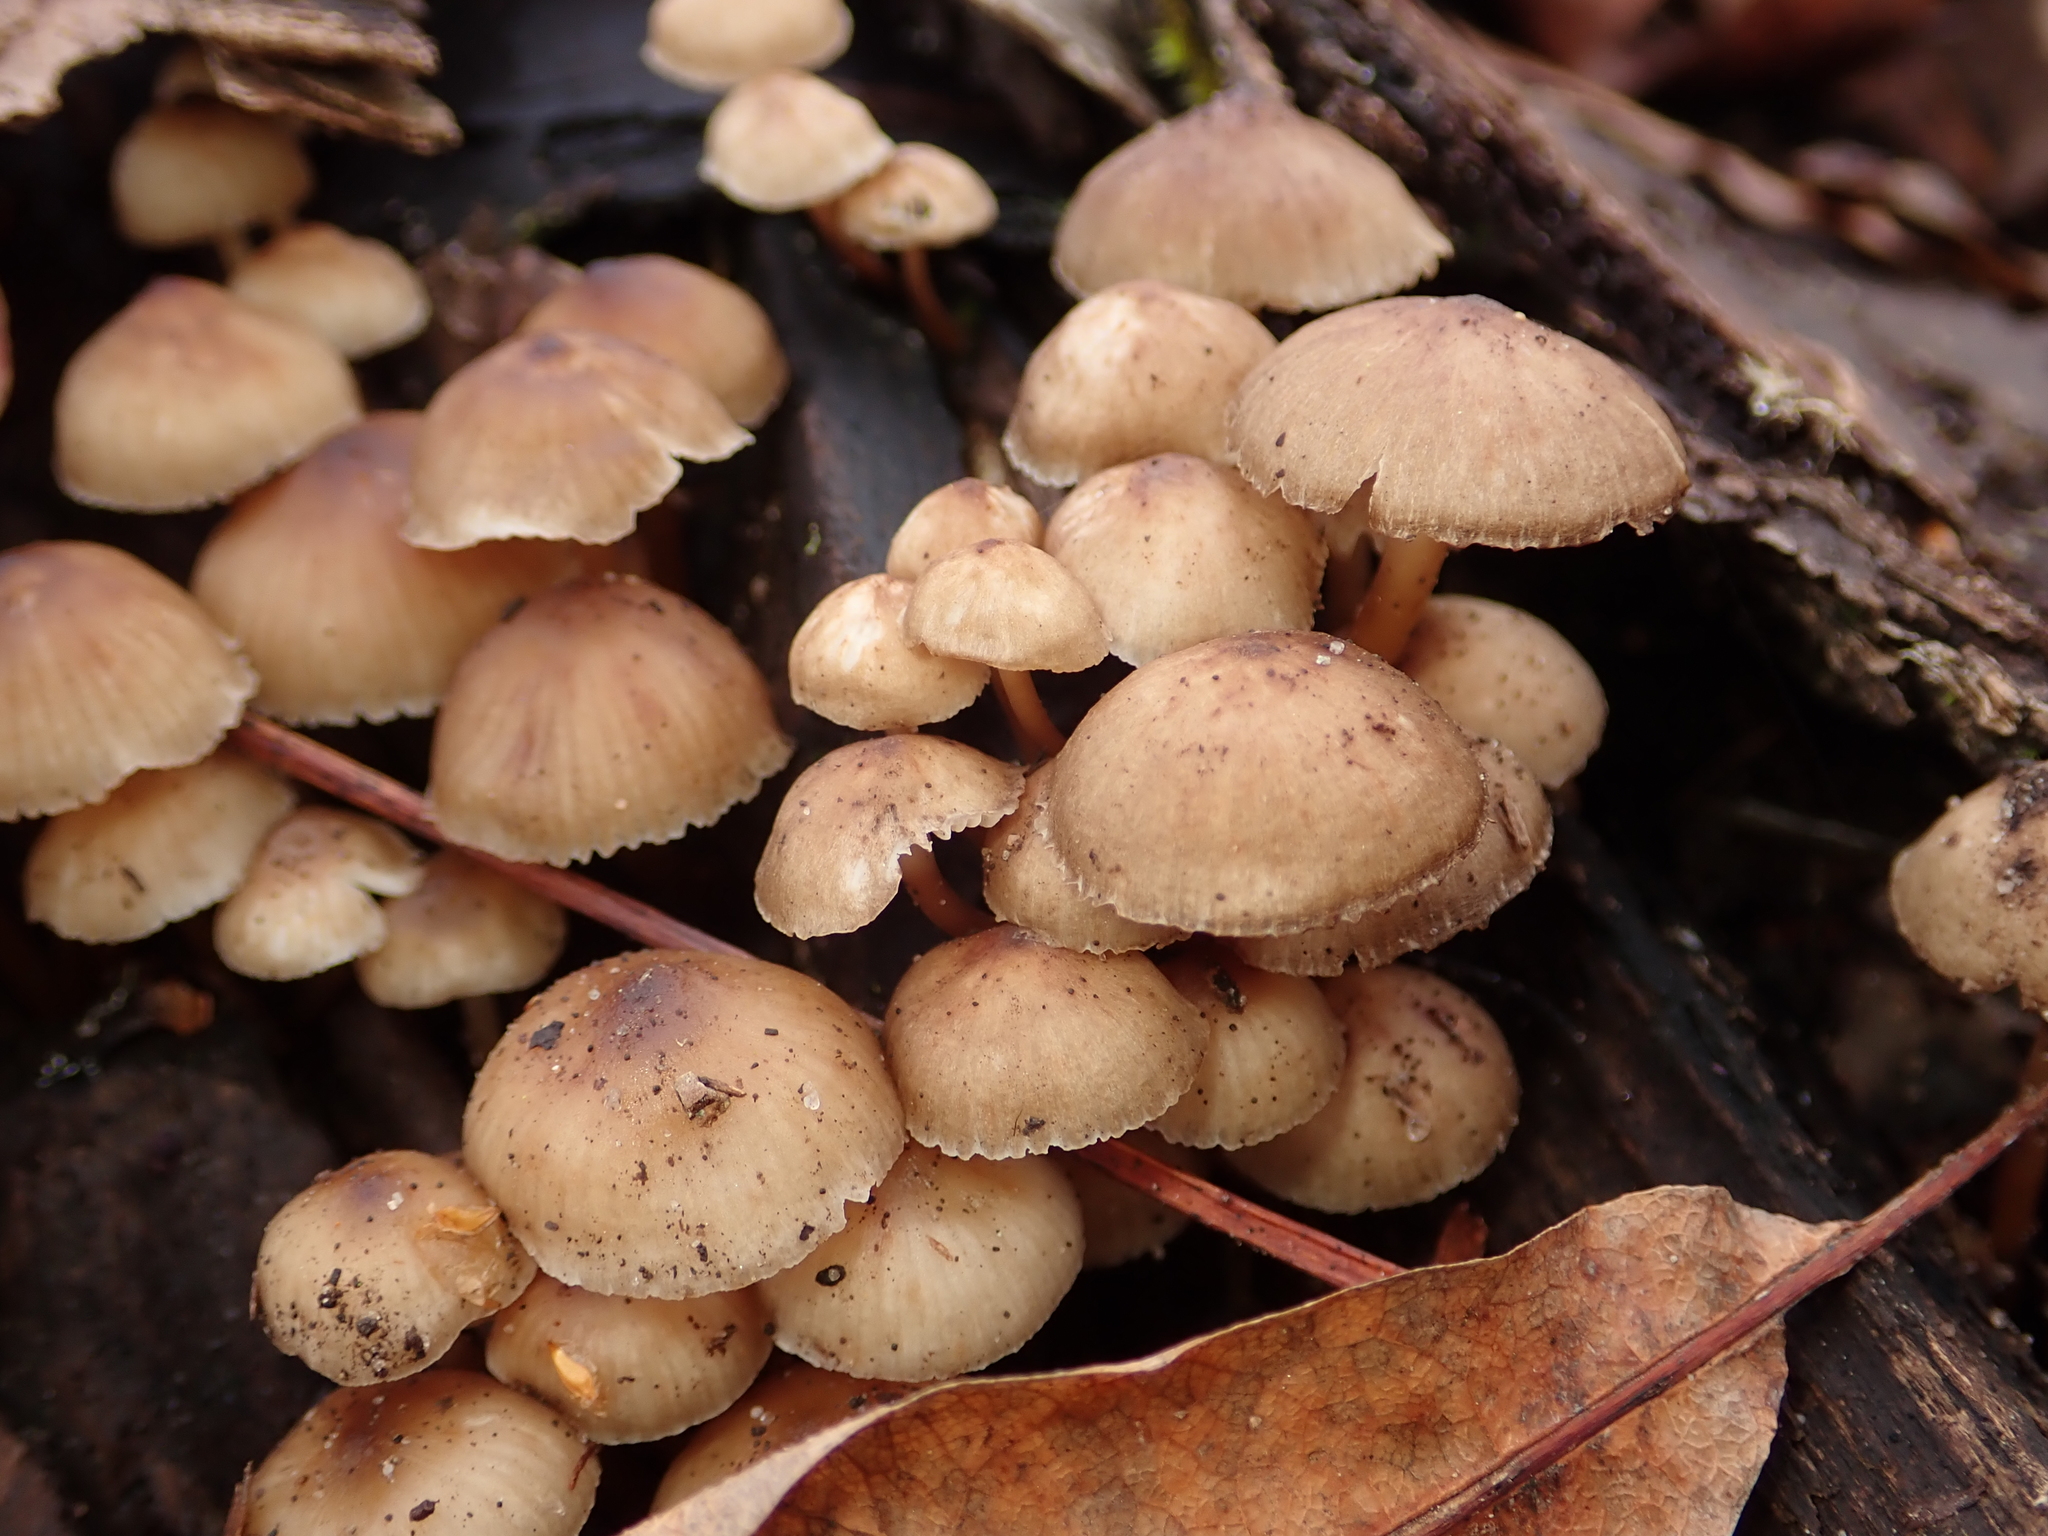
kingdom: Fungi
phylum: Basidiomycota
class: Agaricomycetes
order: Agaricales
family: Mycenaceae
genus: Mycena
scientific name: Mycena inclinata
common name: Clustered bonnet
